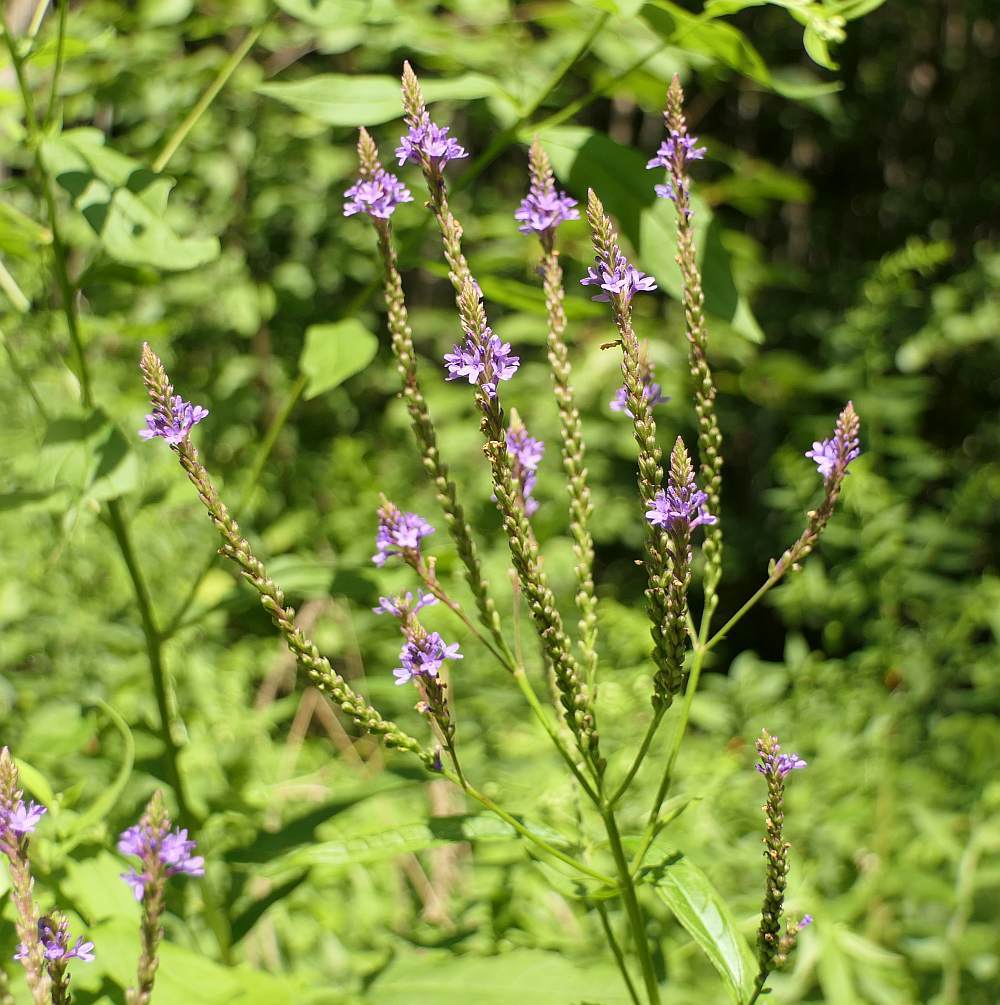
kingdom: Plantae
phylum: Tracheophyta
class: Magnoliopsida
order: Lamiales
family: Verbenaceae
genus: Verbena
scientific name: Verbena hastata
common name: American blue vervain
